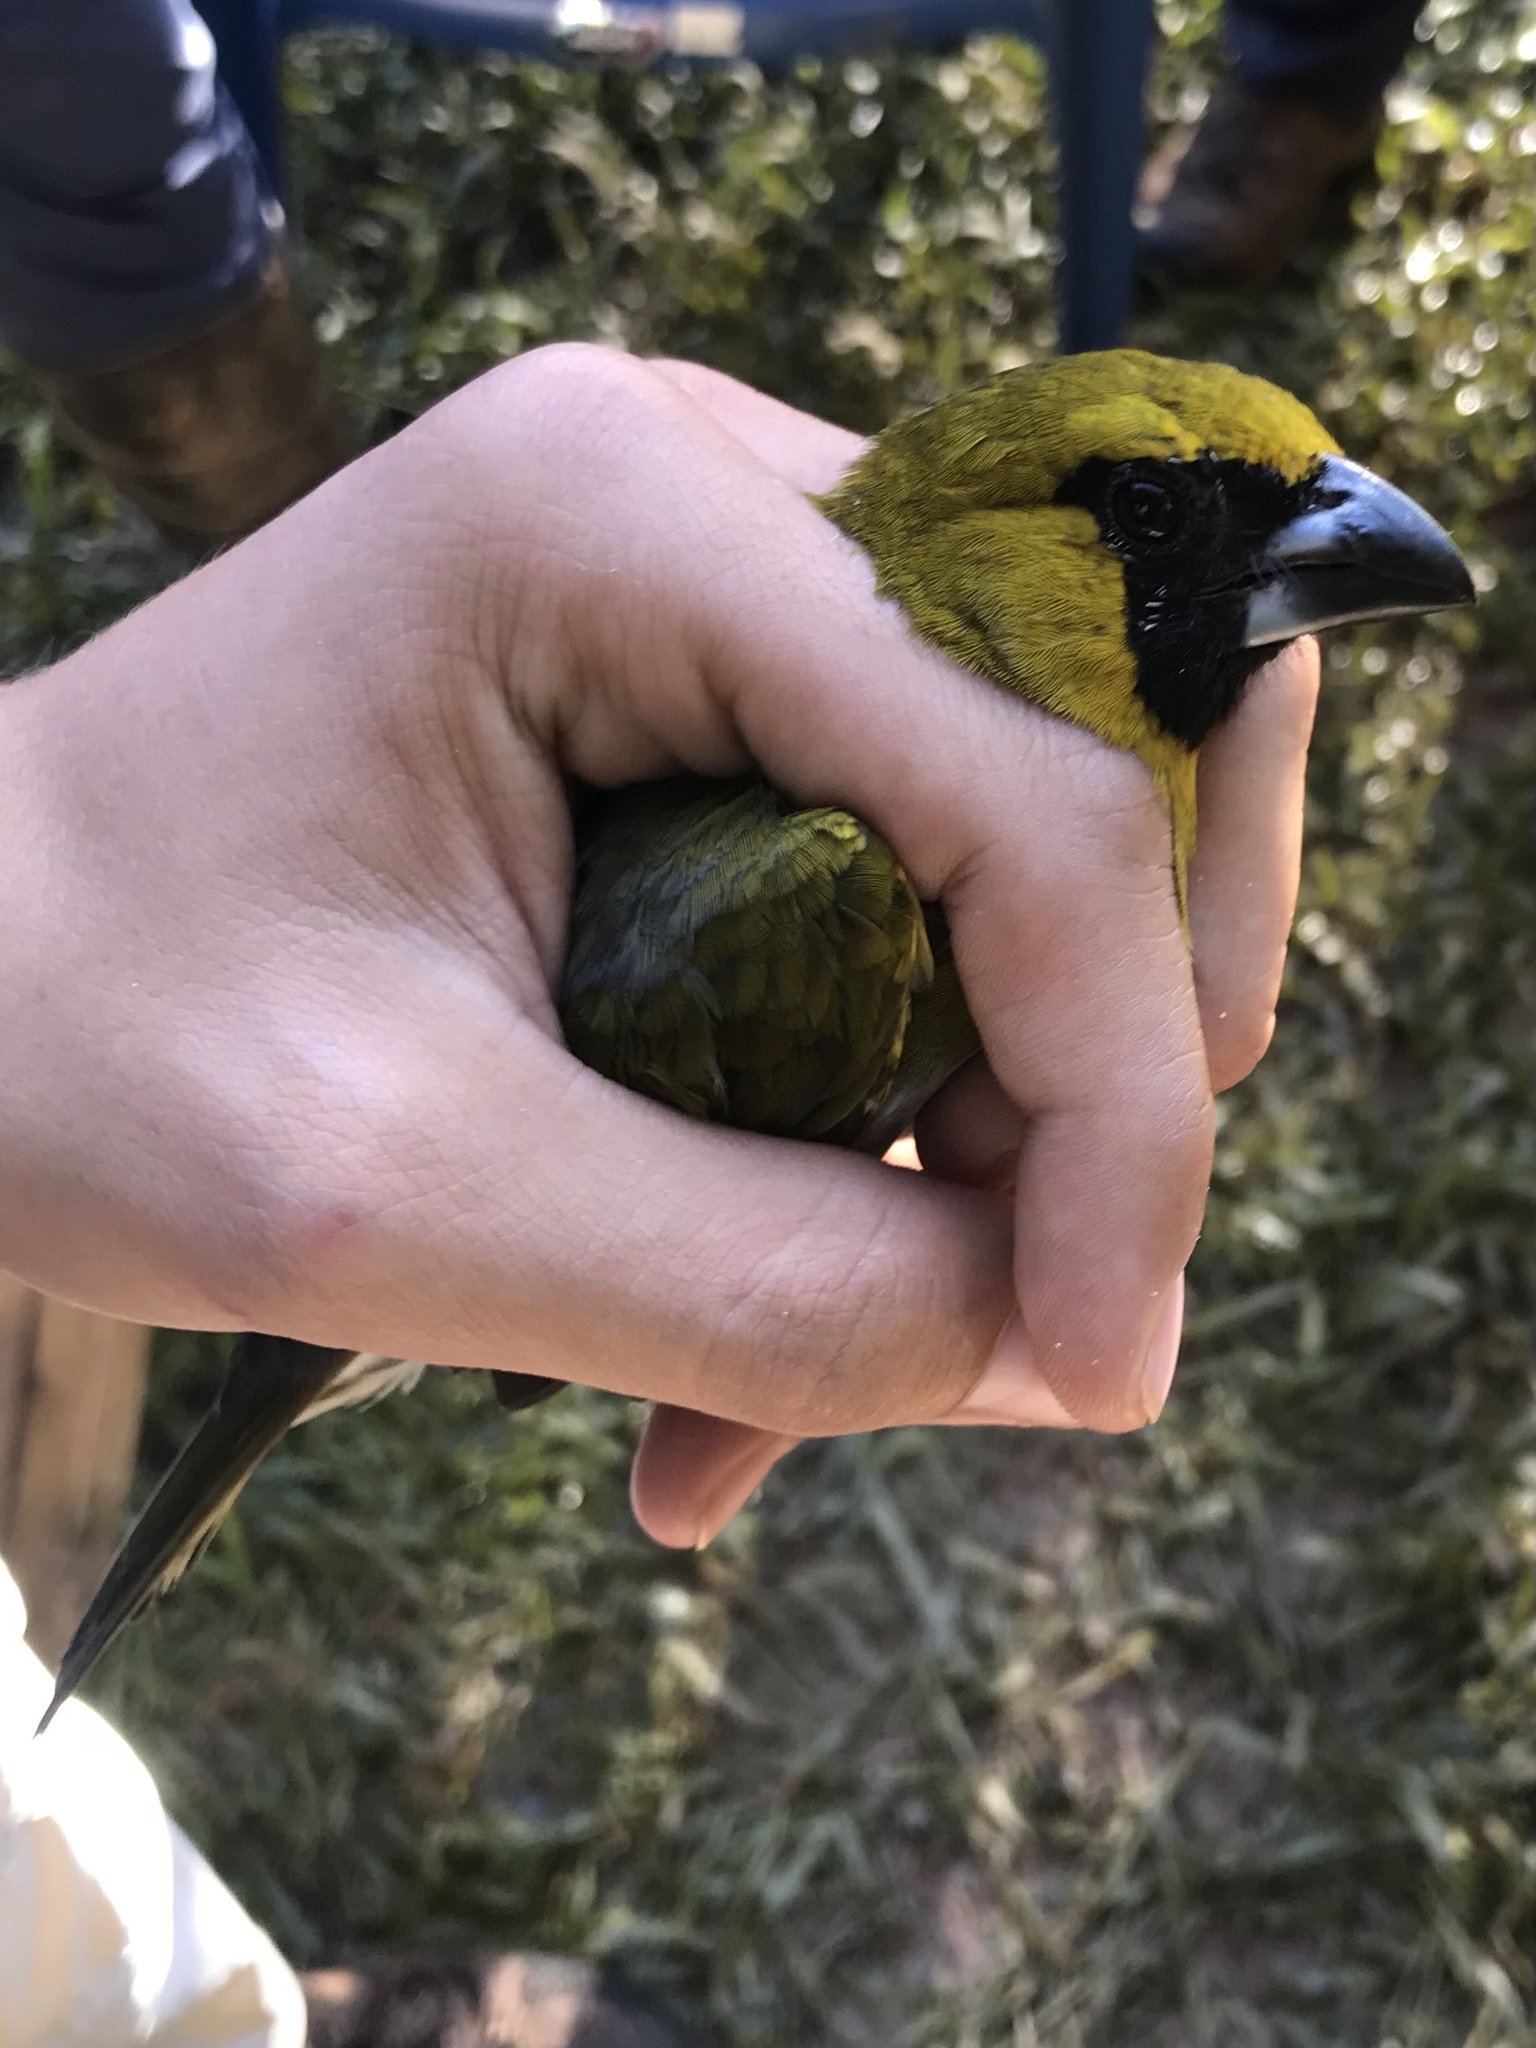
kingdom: Animalia
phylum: Chordata
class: Aves
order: Passeriformes
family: Cardinalidae
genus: Caryothraustes
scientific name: Caryothraustes poliogaster
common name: Black-faced grosbeak
